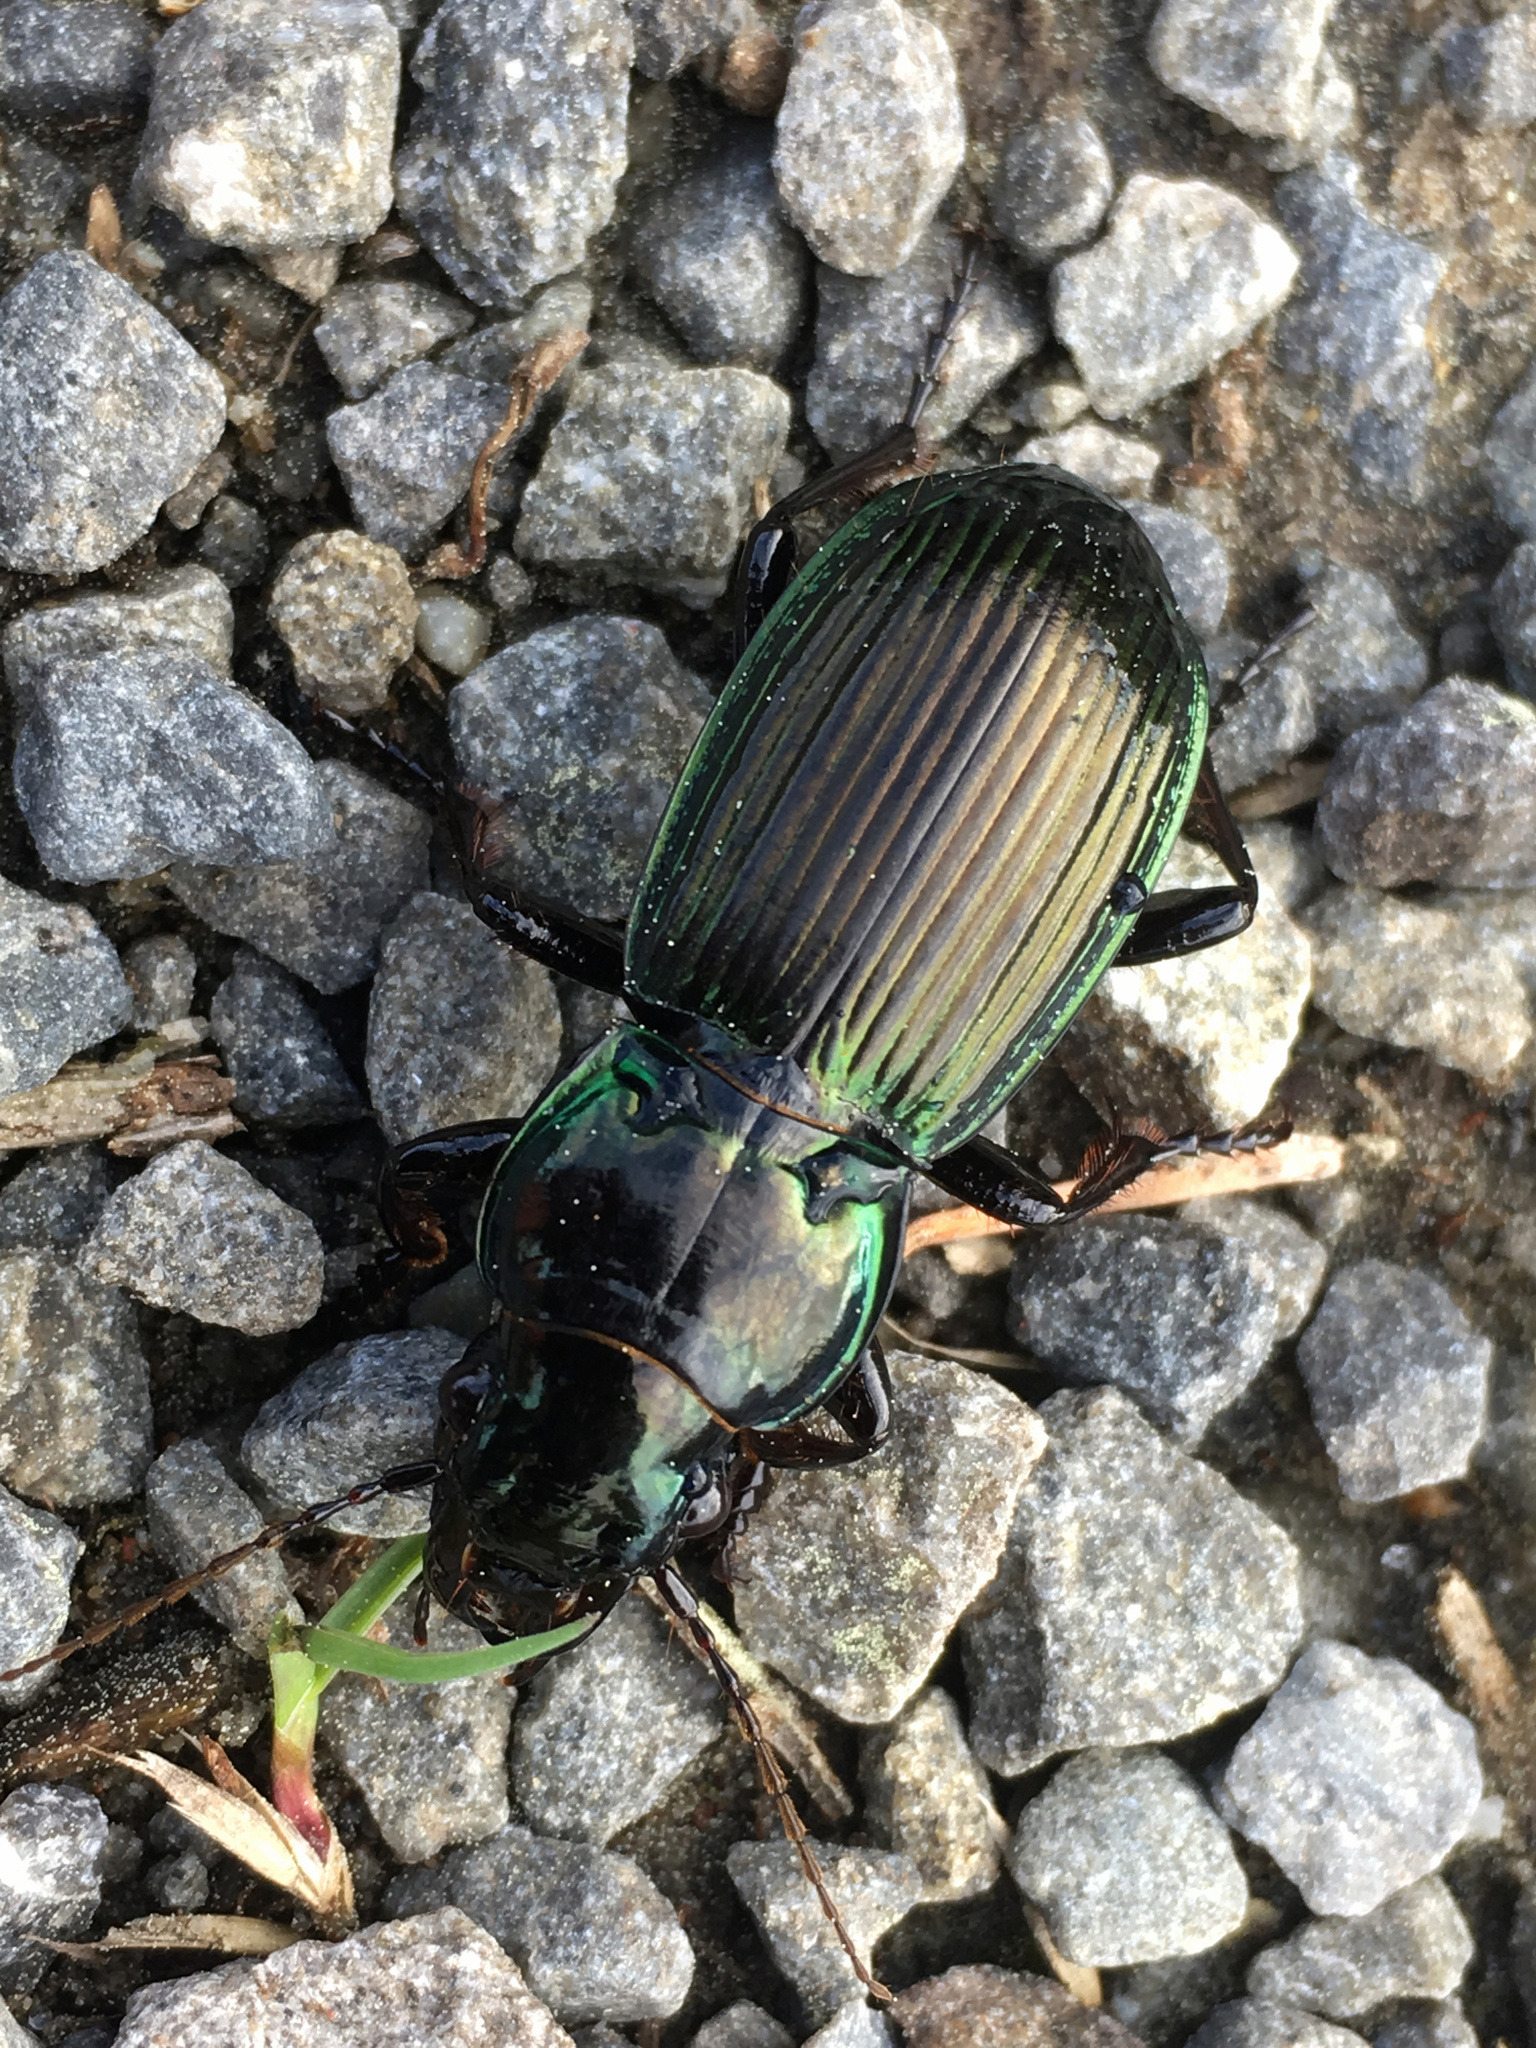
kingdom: Animalia
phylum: Arthropoda
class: Insecta
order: Coleoptera
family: Carabidae
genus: Megadromus
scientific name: Megadromus antarcticus
